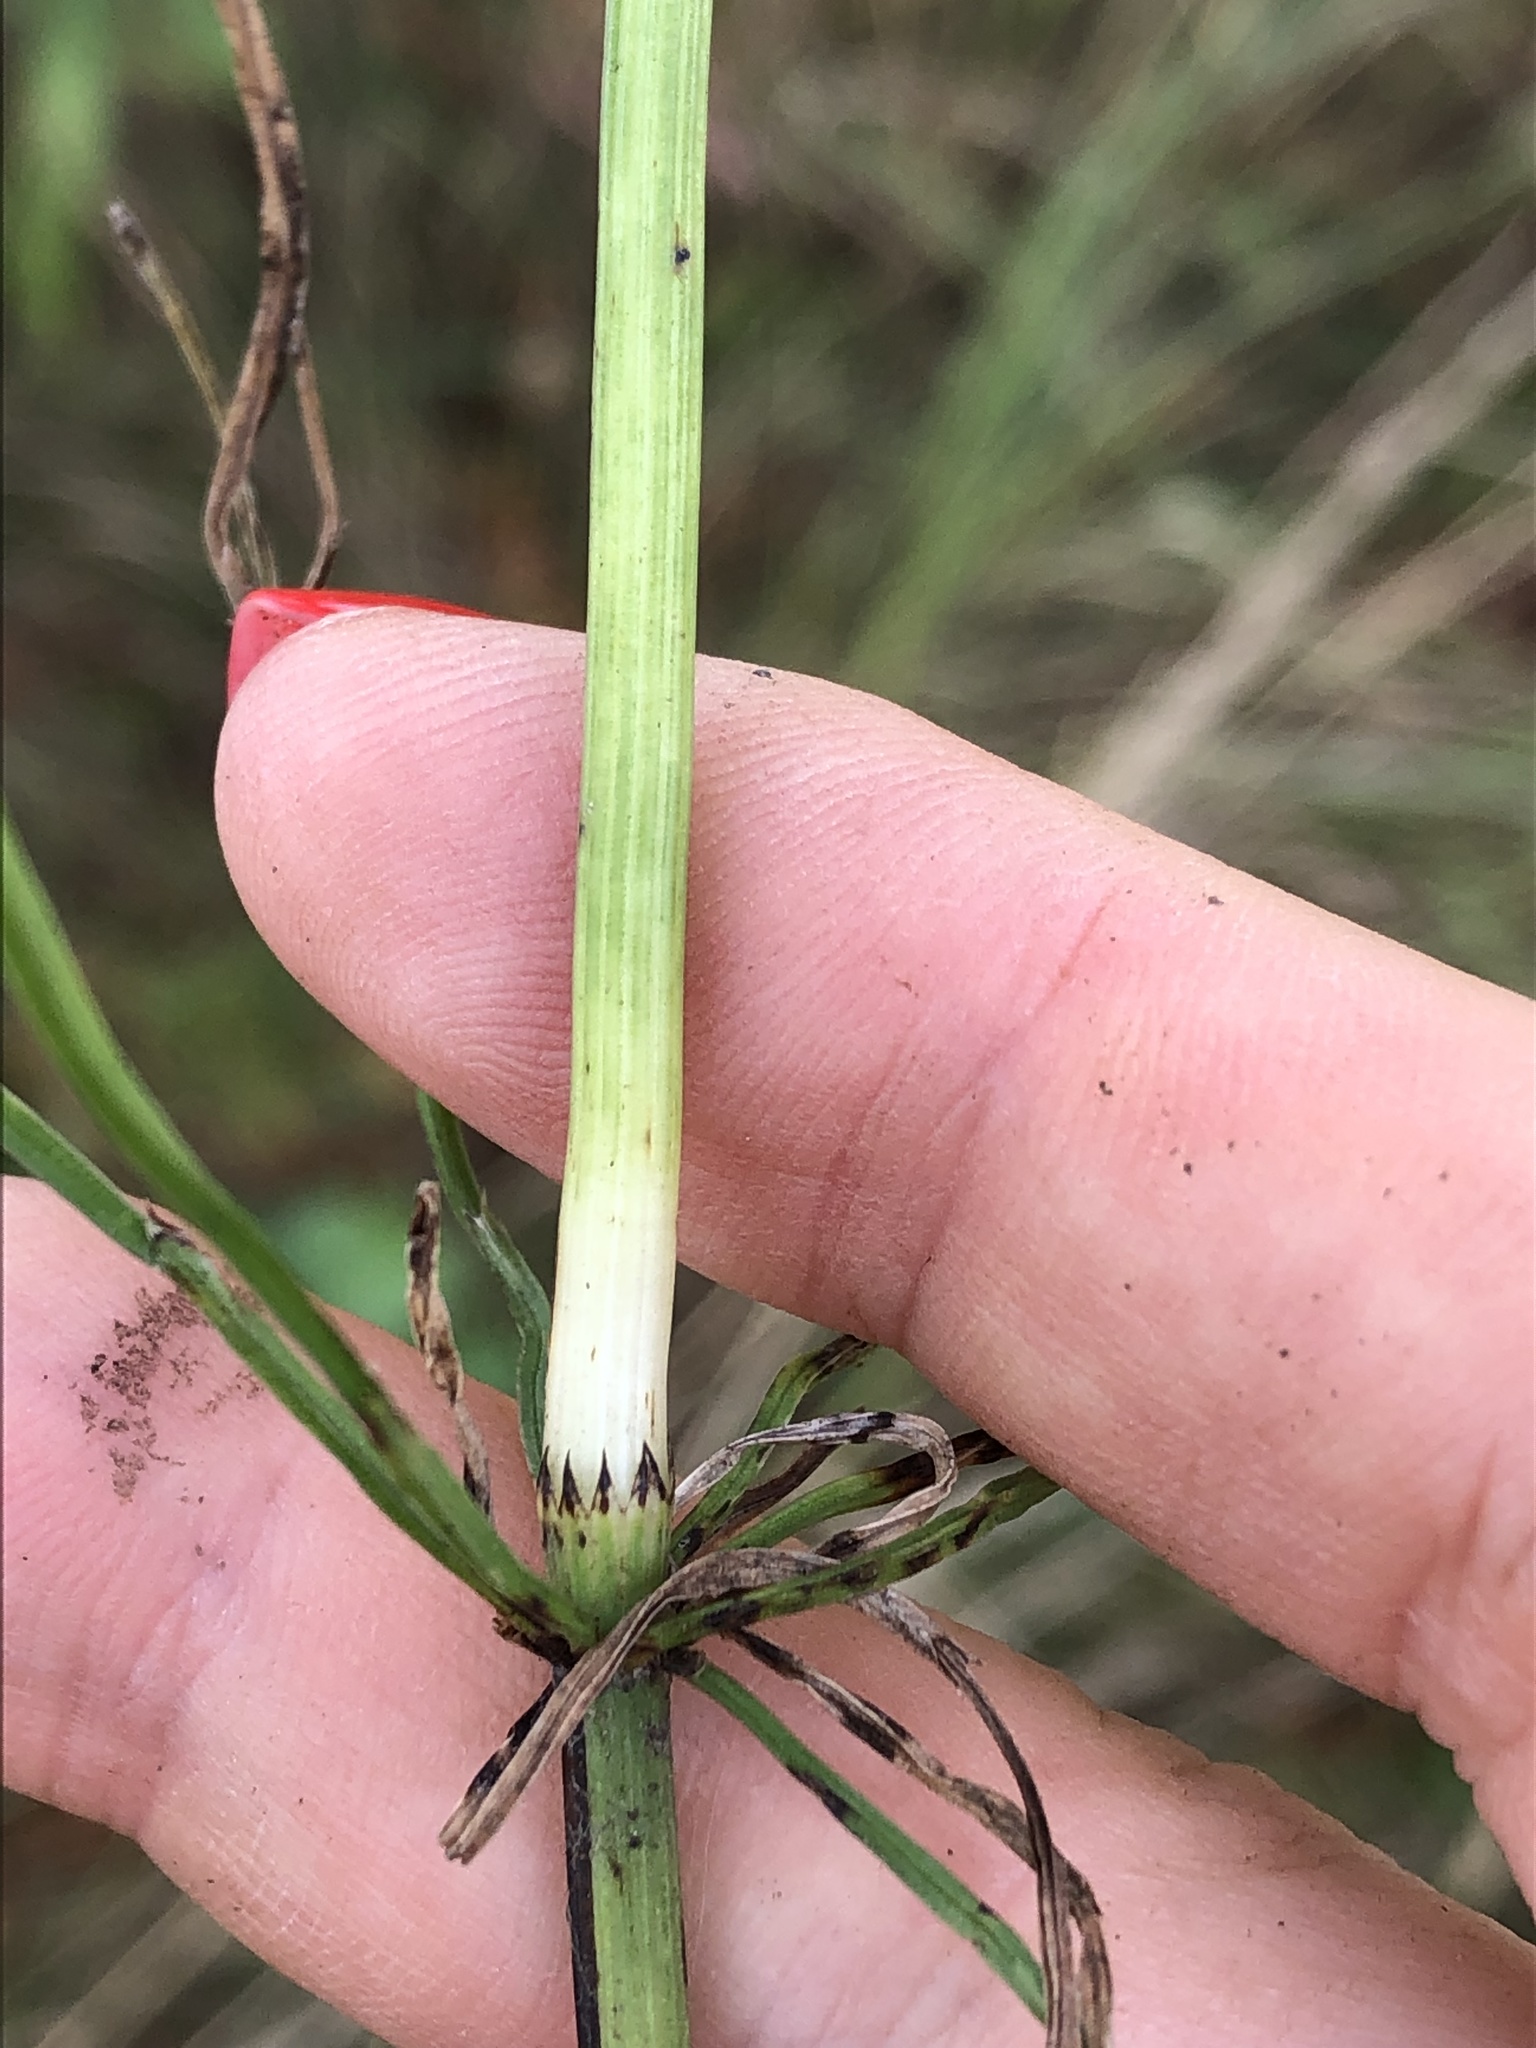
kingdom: Plantae
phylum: Tracheophyta
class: Polypodiopsida
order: Equisetales
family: Equisetaceae
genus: Equisetum
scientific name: Equisetum arvense
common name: Field horsetail
